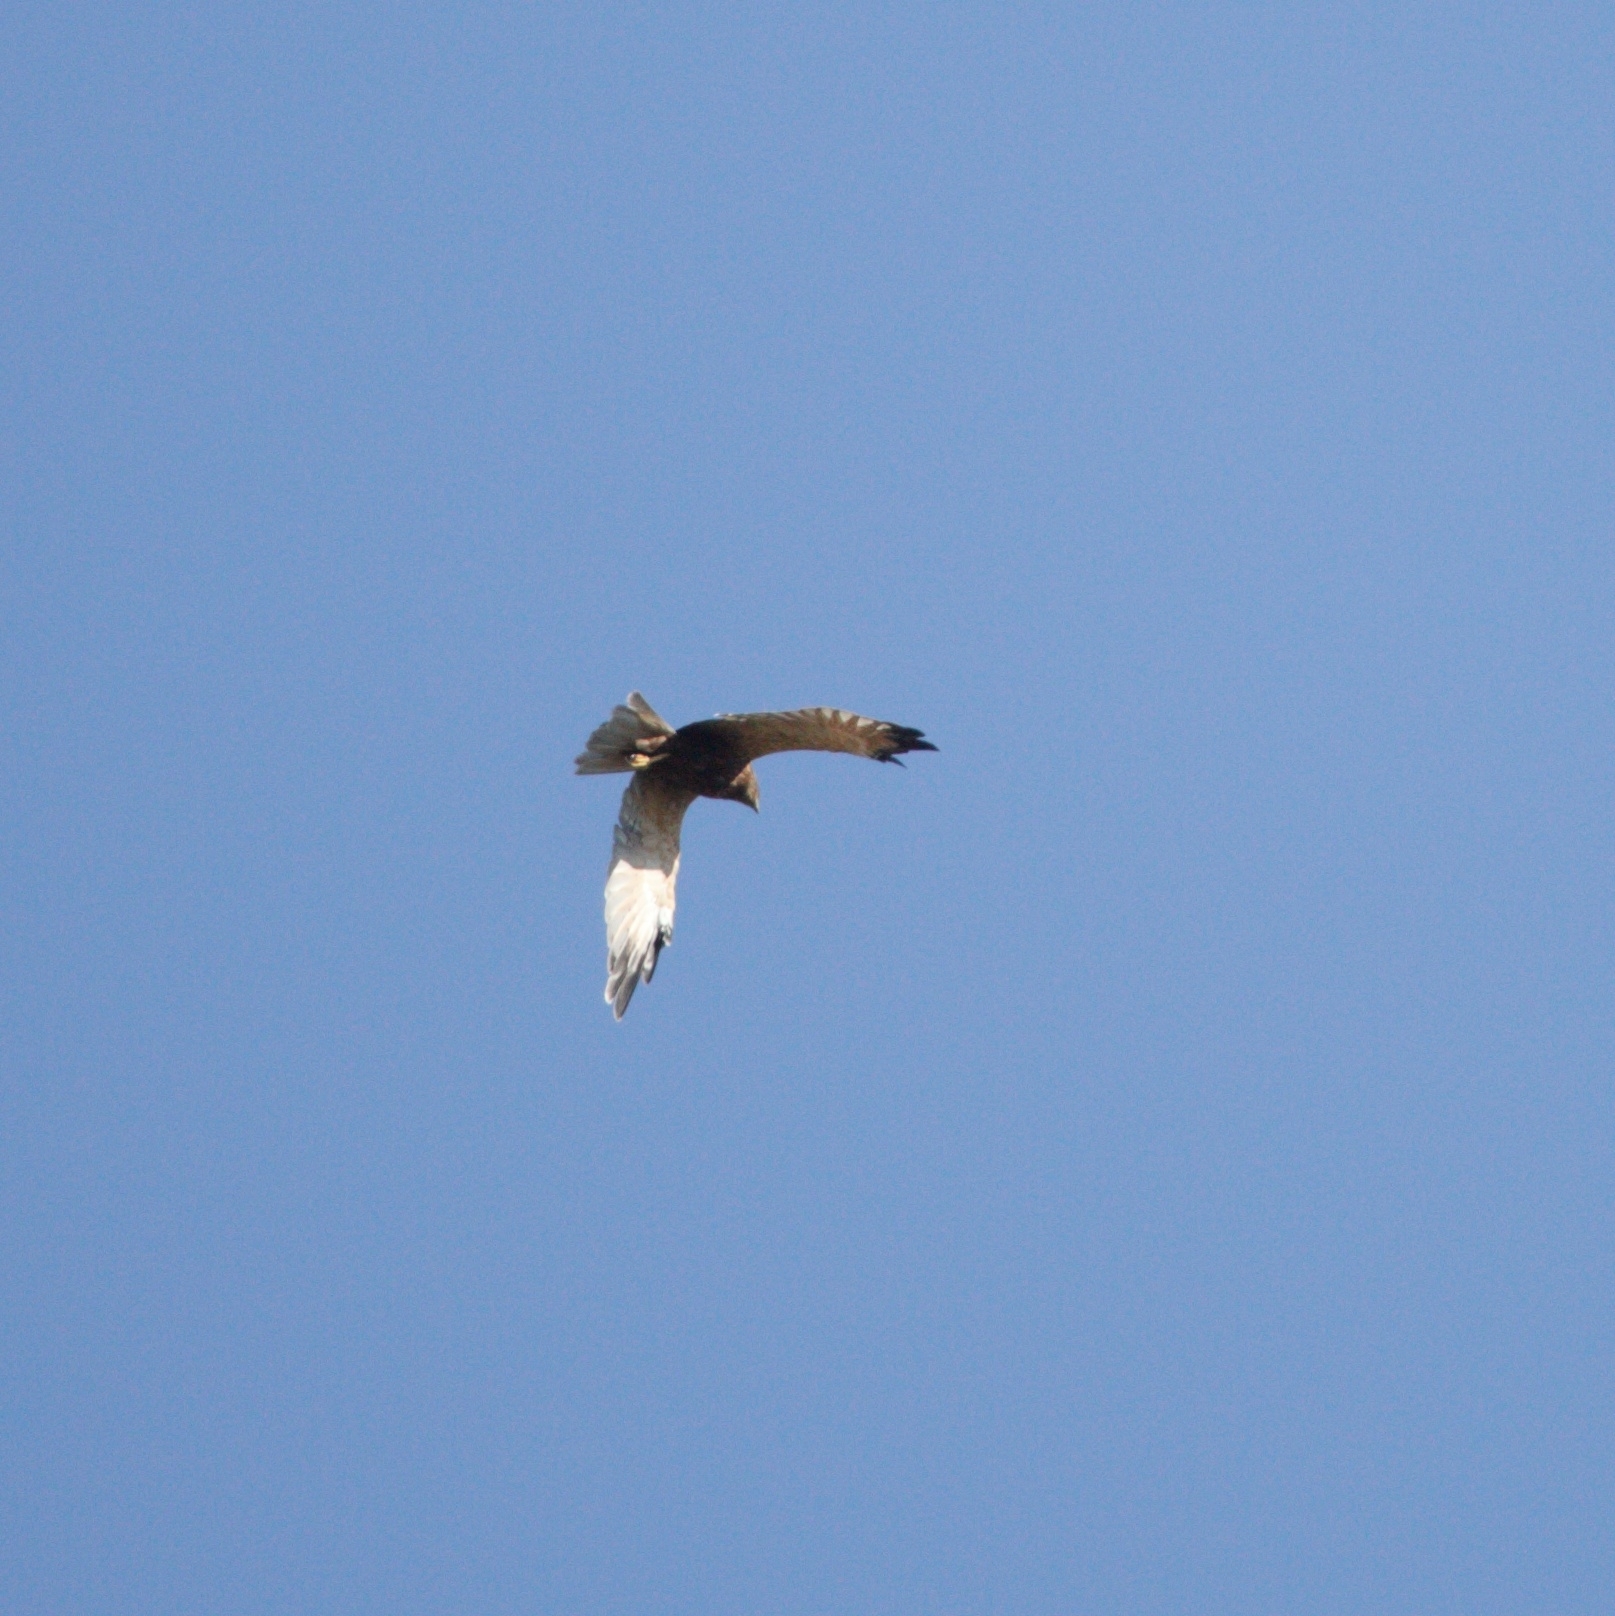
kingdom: Animalia
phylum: Chordata
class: Aves
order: Accipitriformes
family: Accipitridae
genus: Circus
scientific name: Circus aeruginosus
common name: Western marsh harrier
